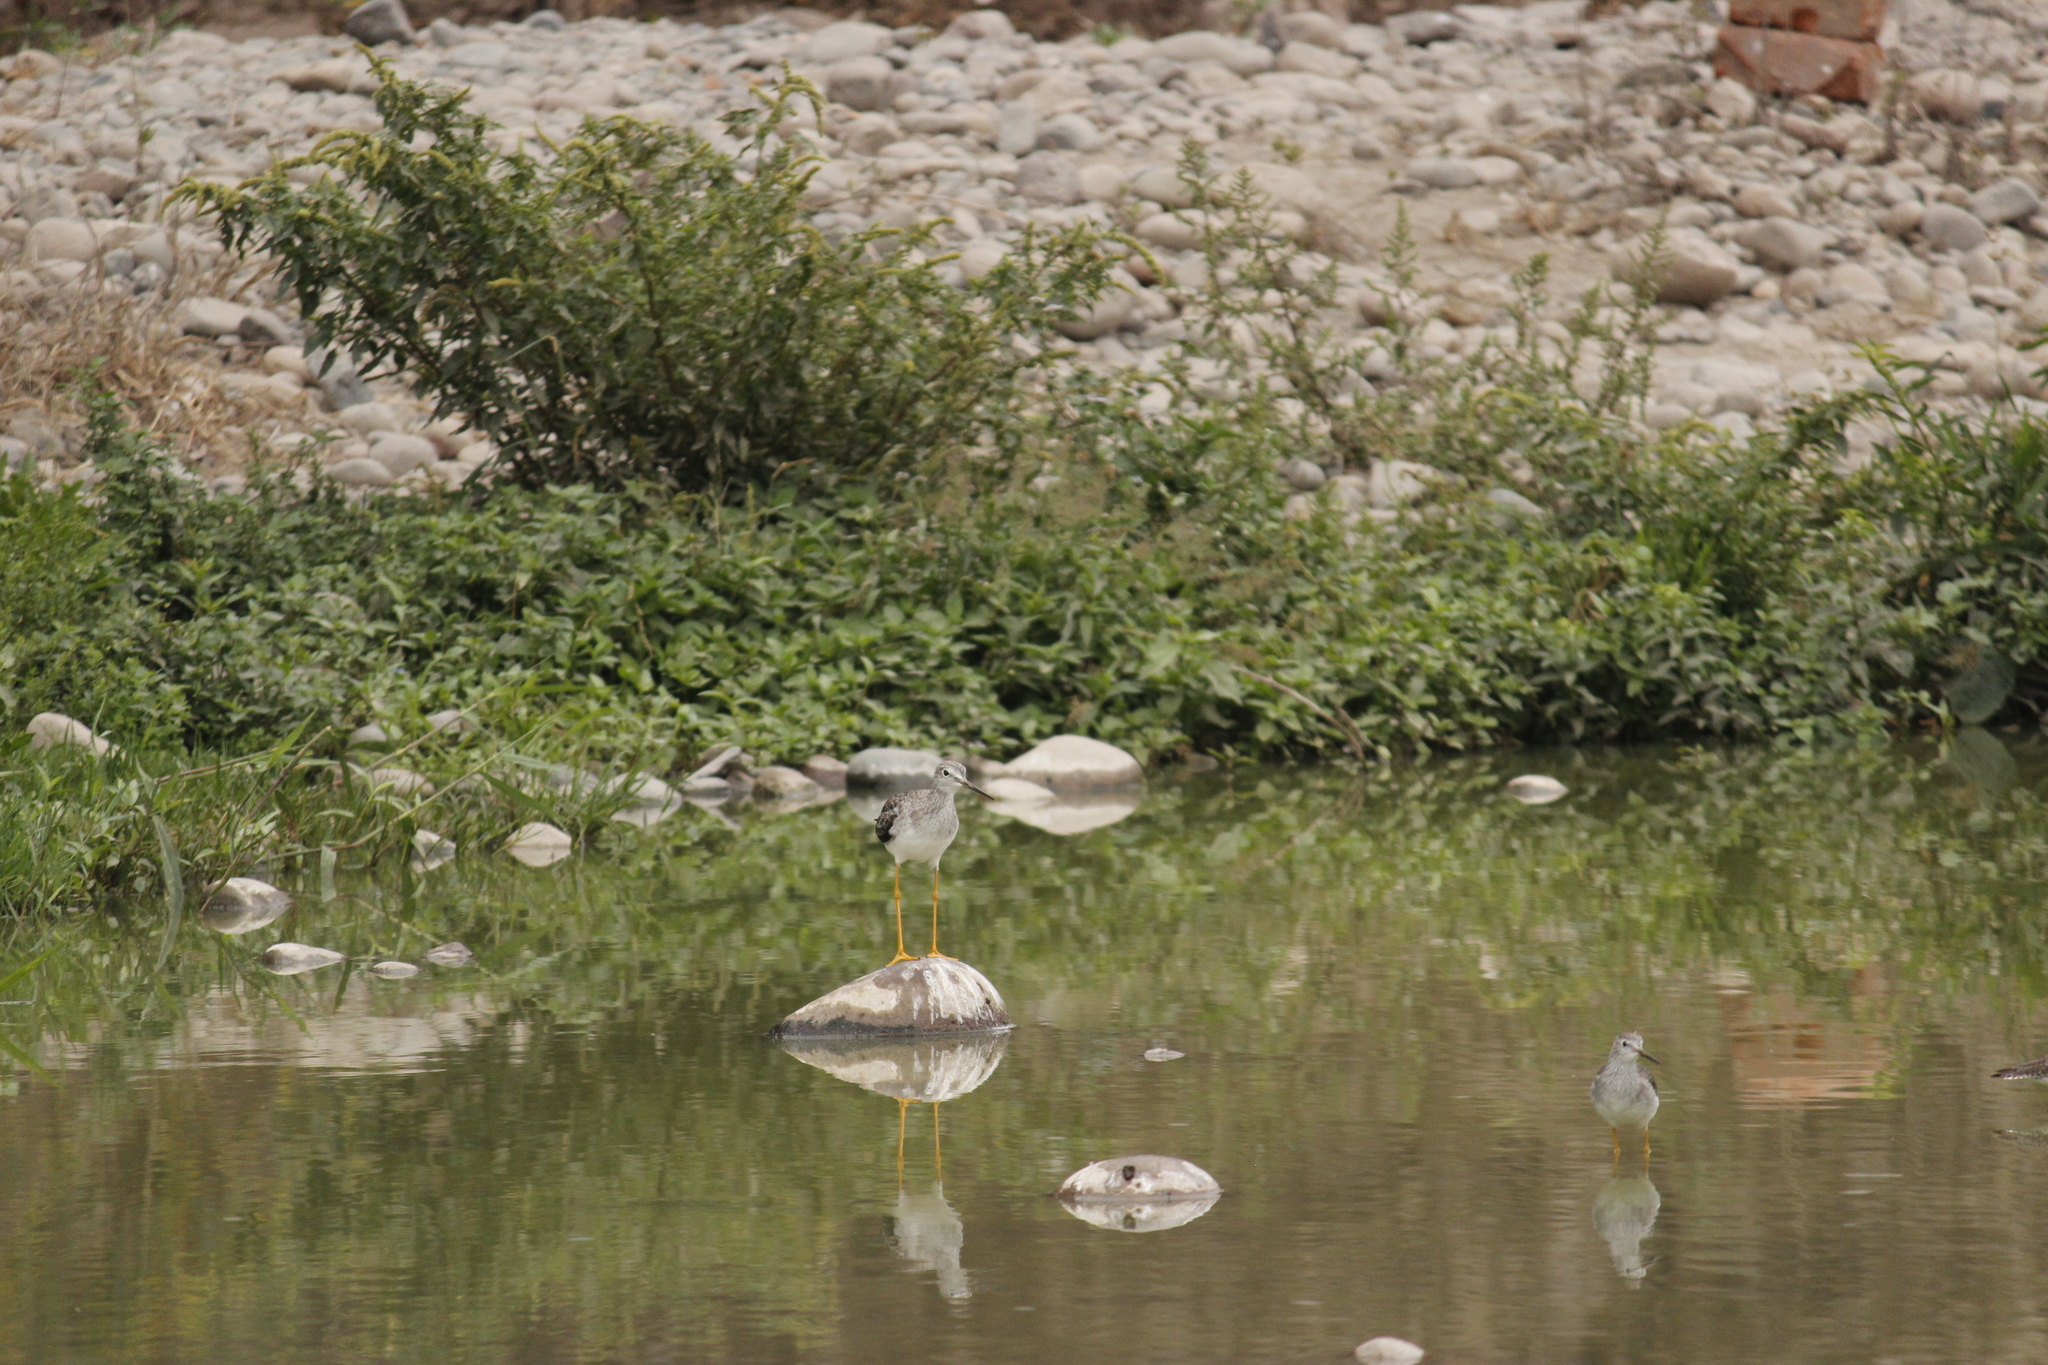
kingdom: Animalia
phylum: Chordata
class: Aves
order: Charadriiformes
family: Scolopacidae
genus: Tringa
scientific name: Tringa melanoleuca
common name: Greater yellowlegs
